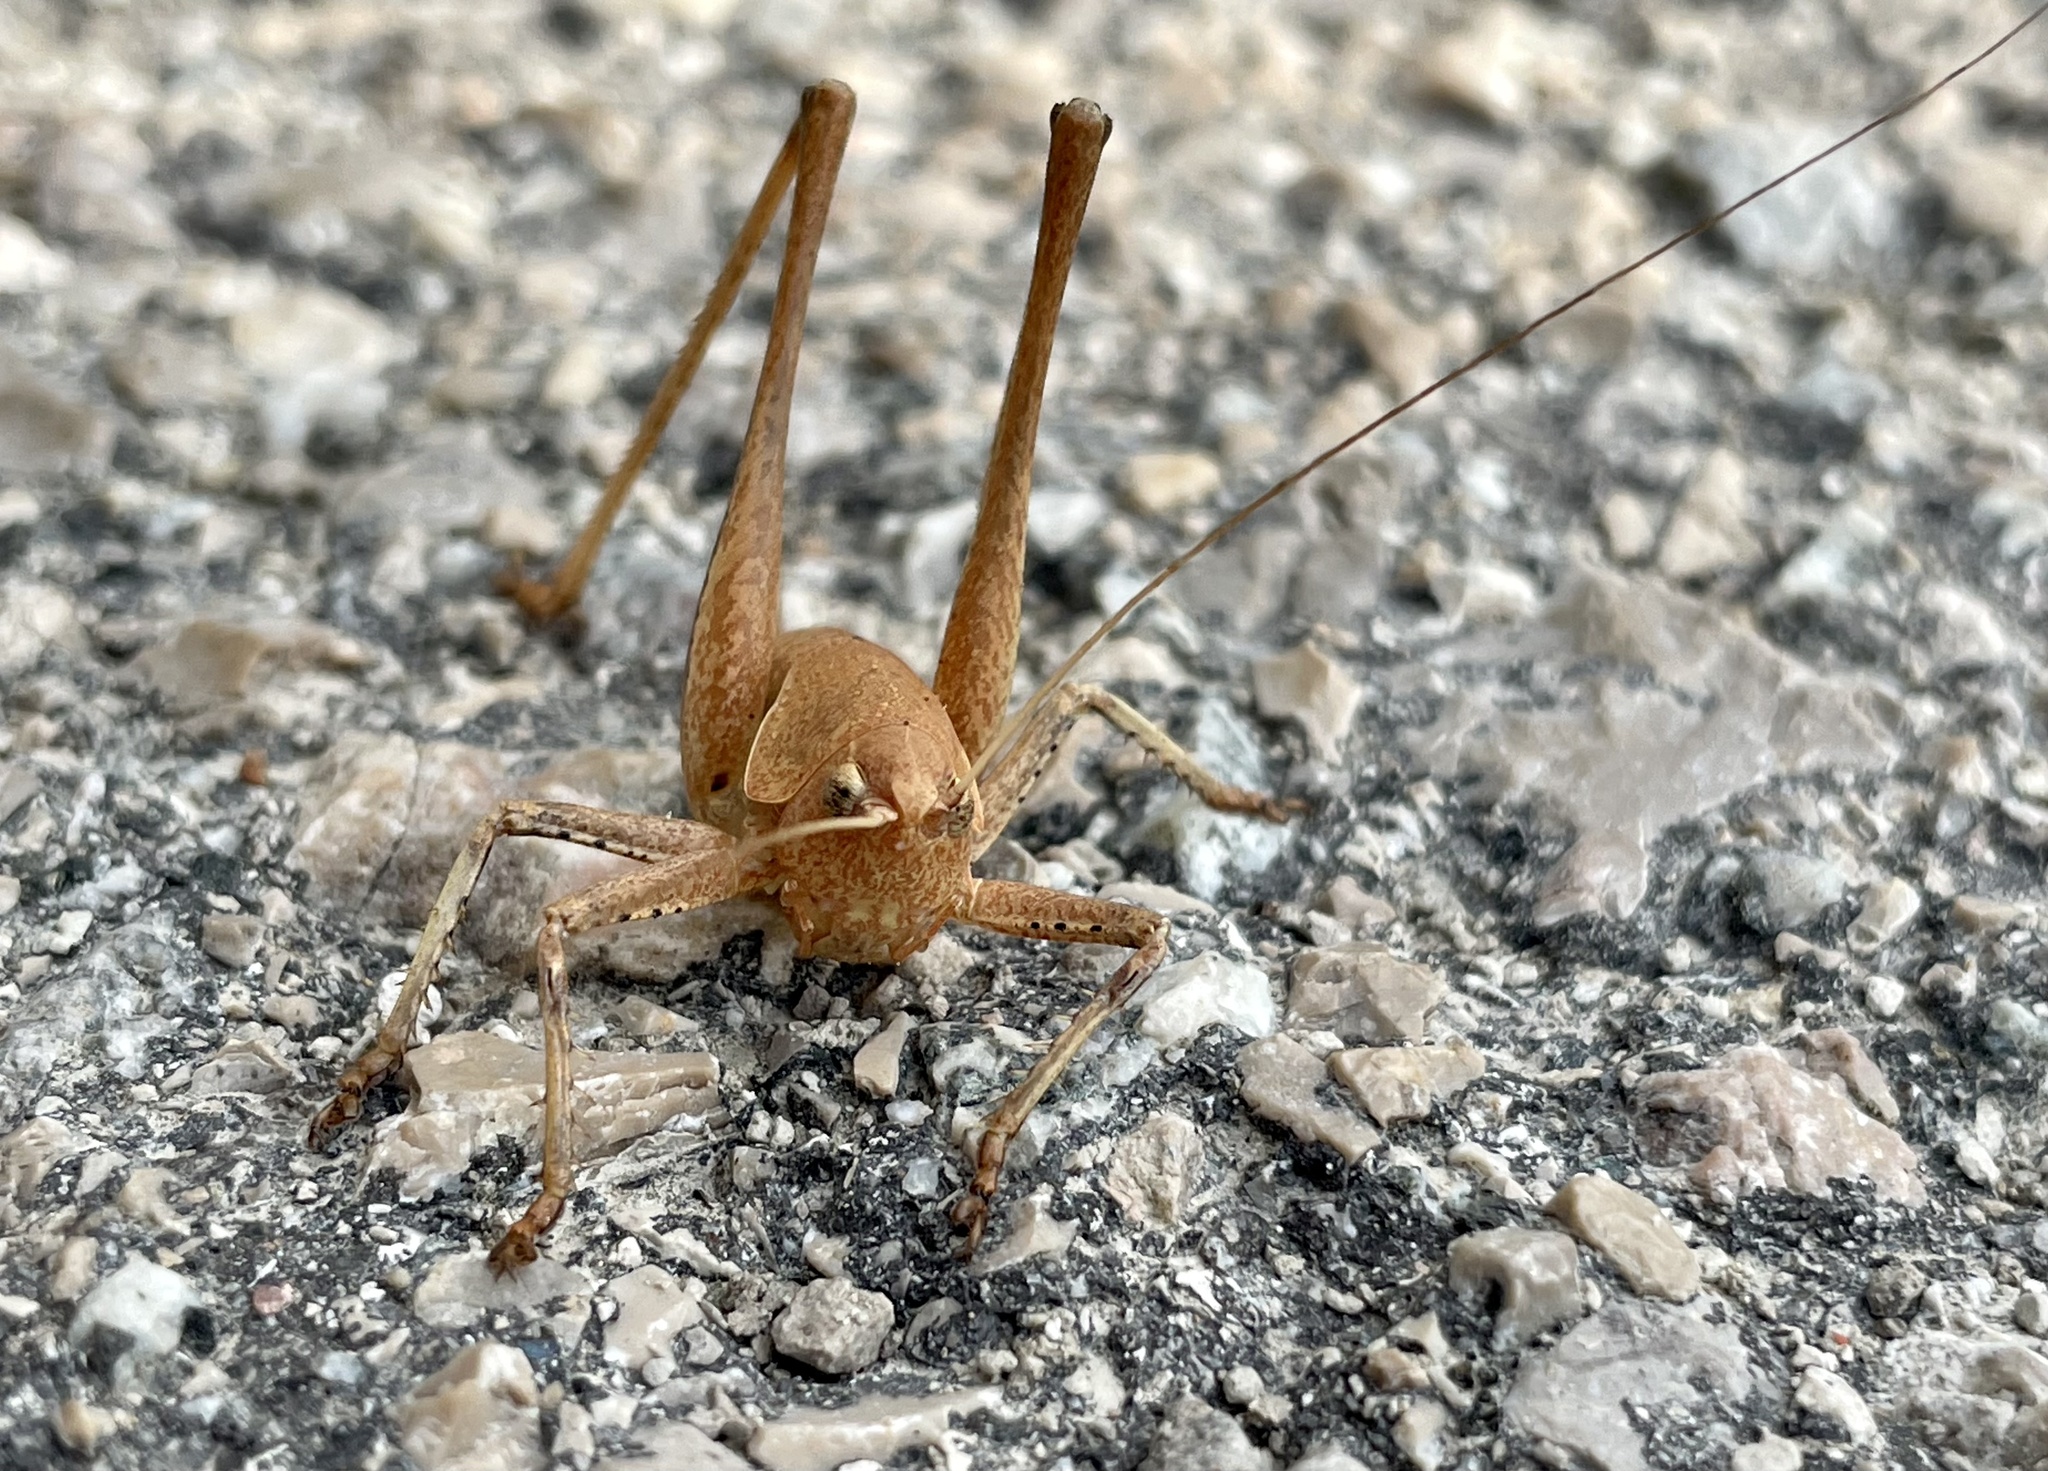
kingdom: Animalia
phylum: Arthropoda
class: Insecta
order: Orthoptera
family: Tettigoniidae
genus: Thyreonotus
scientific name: Thyreonotus corsicus
